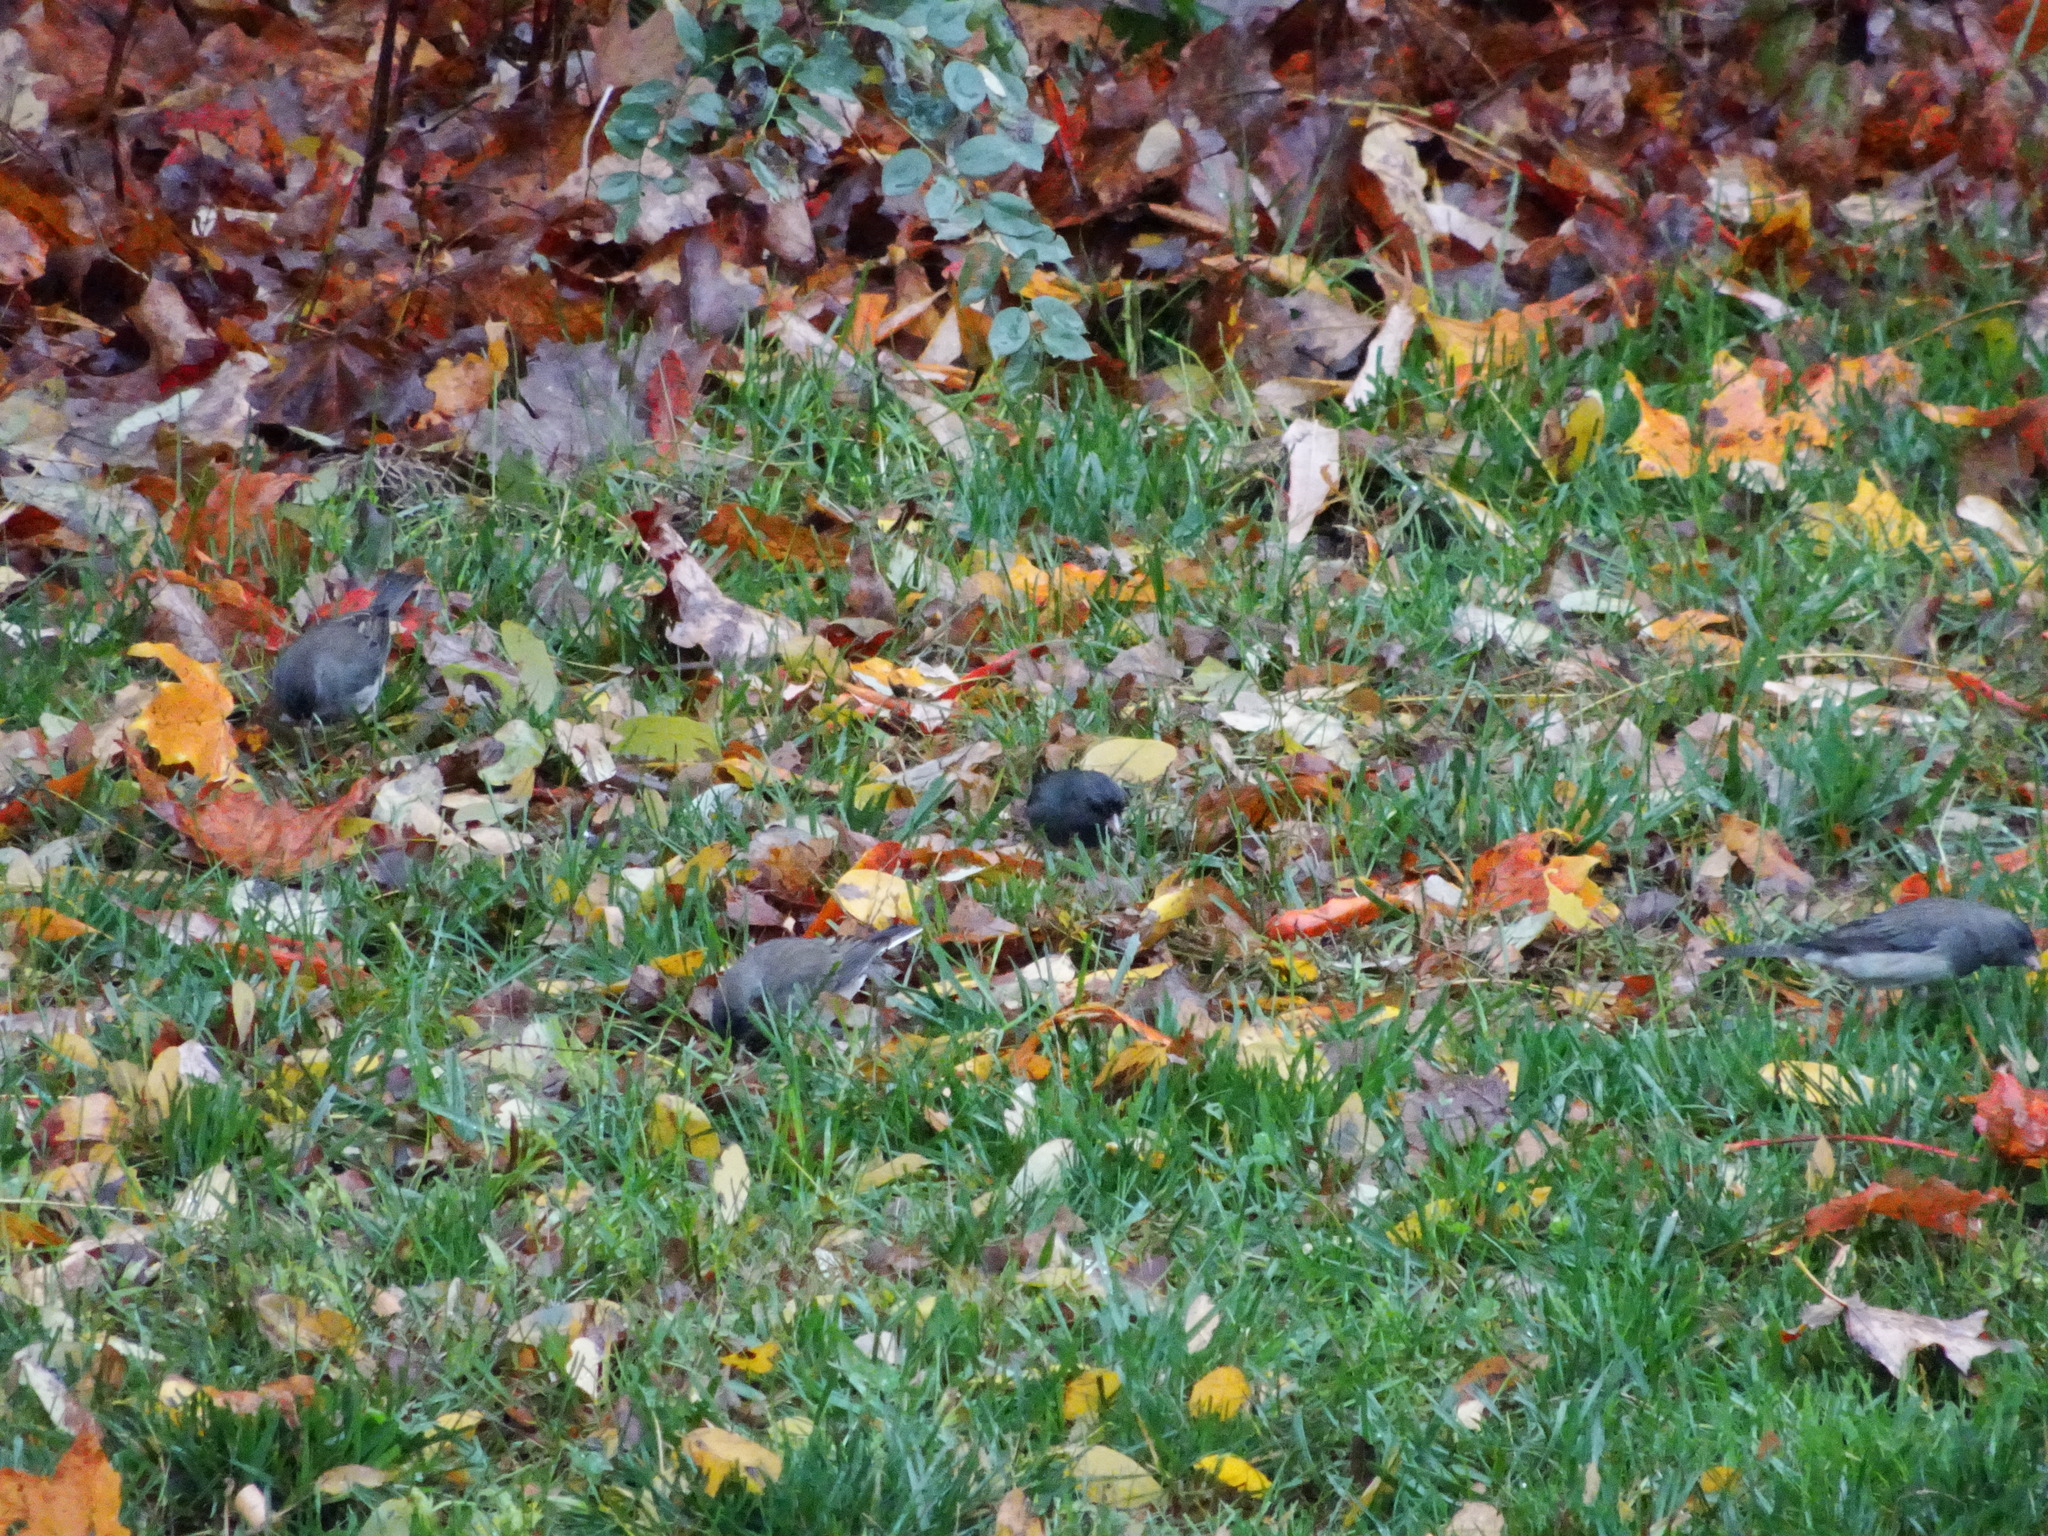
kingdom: Animalia
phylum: Chordata
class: Aves
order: Passeriformes
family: Passerellidae
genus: Junco
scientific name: Junco hyemalis
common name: Dark-eyed junco
